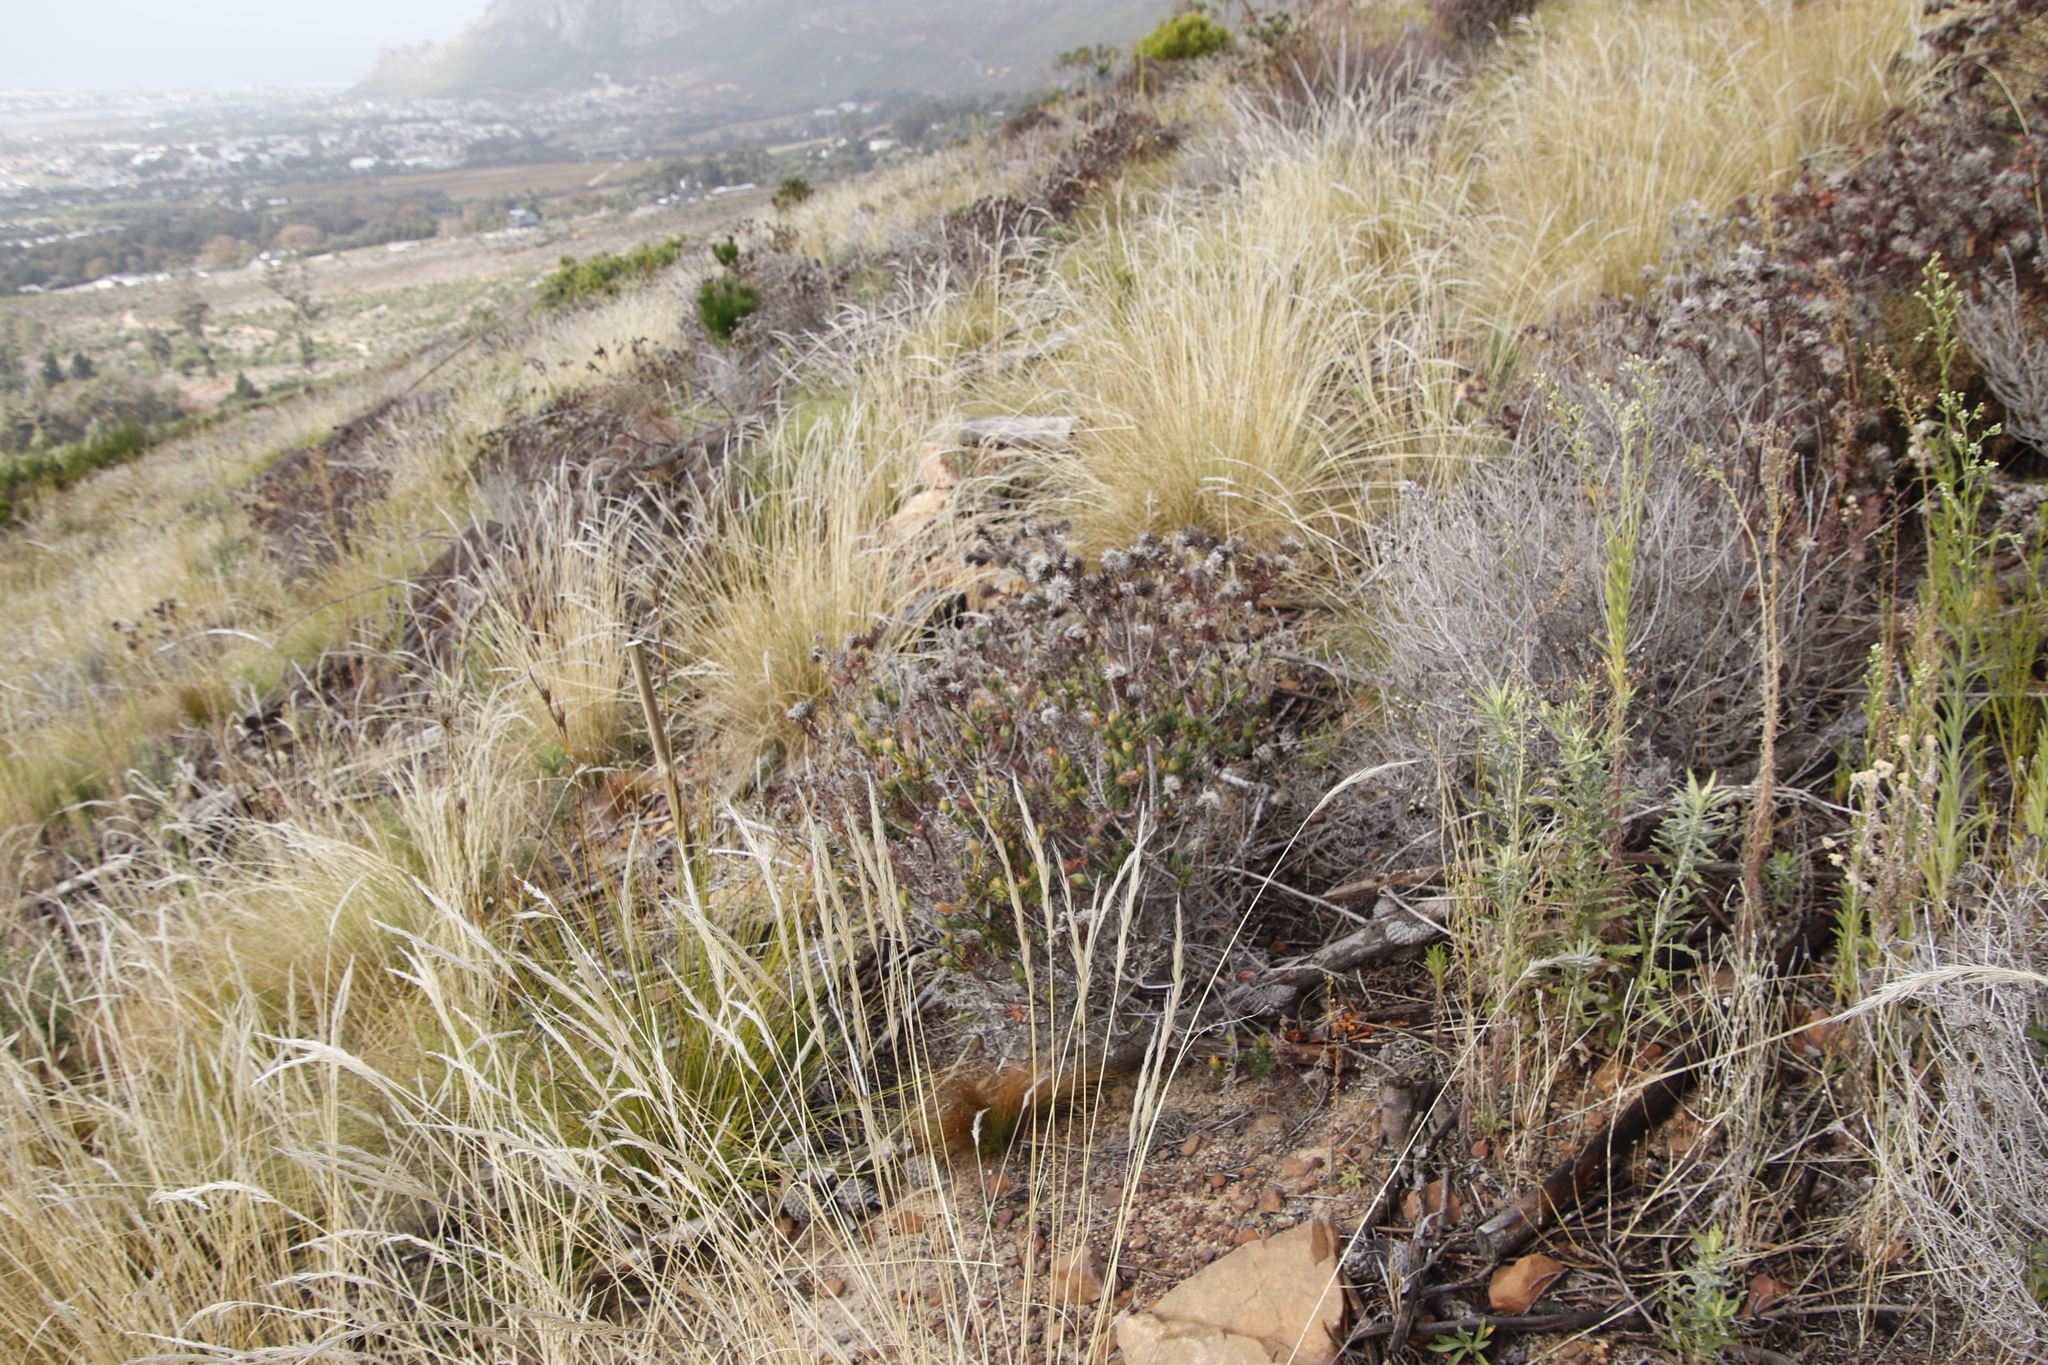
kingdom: Plantae
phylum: Tracheophyta
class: Magnoliopsida
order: Rosales
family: Rhamnaceae
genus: Phylica
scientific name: Phylica pubescens
